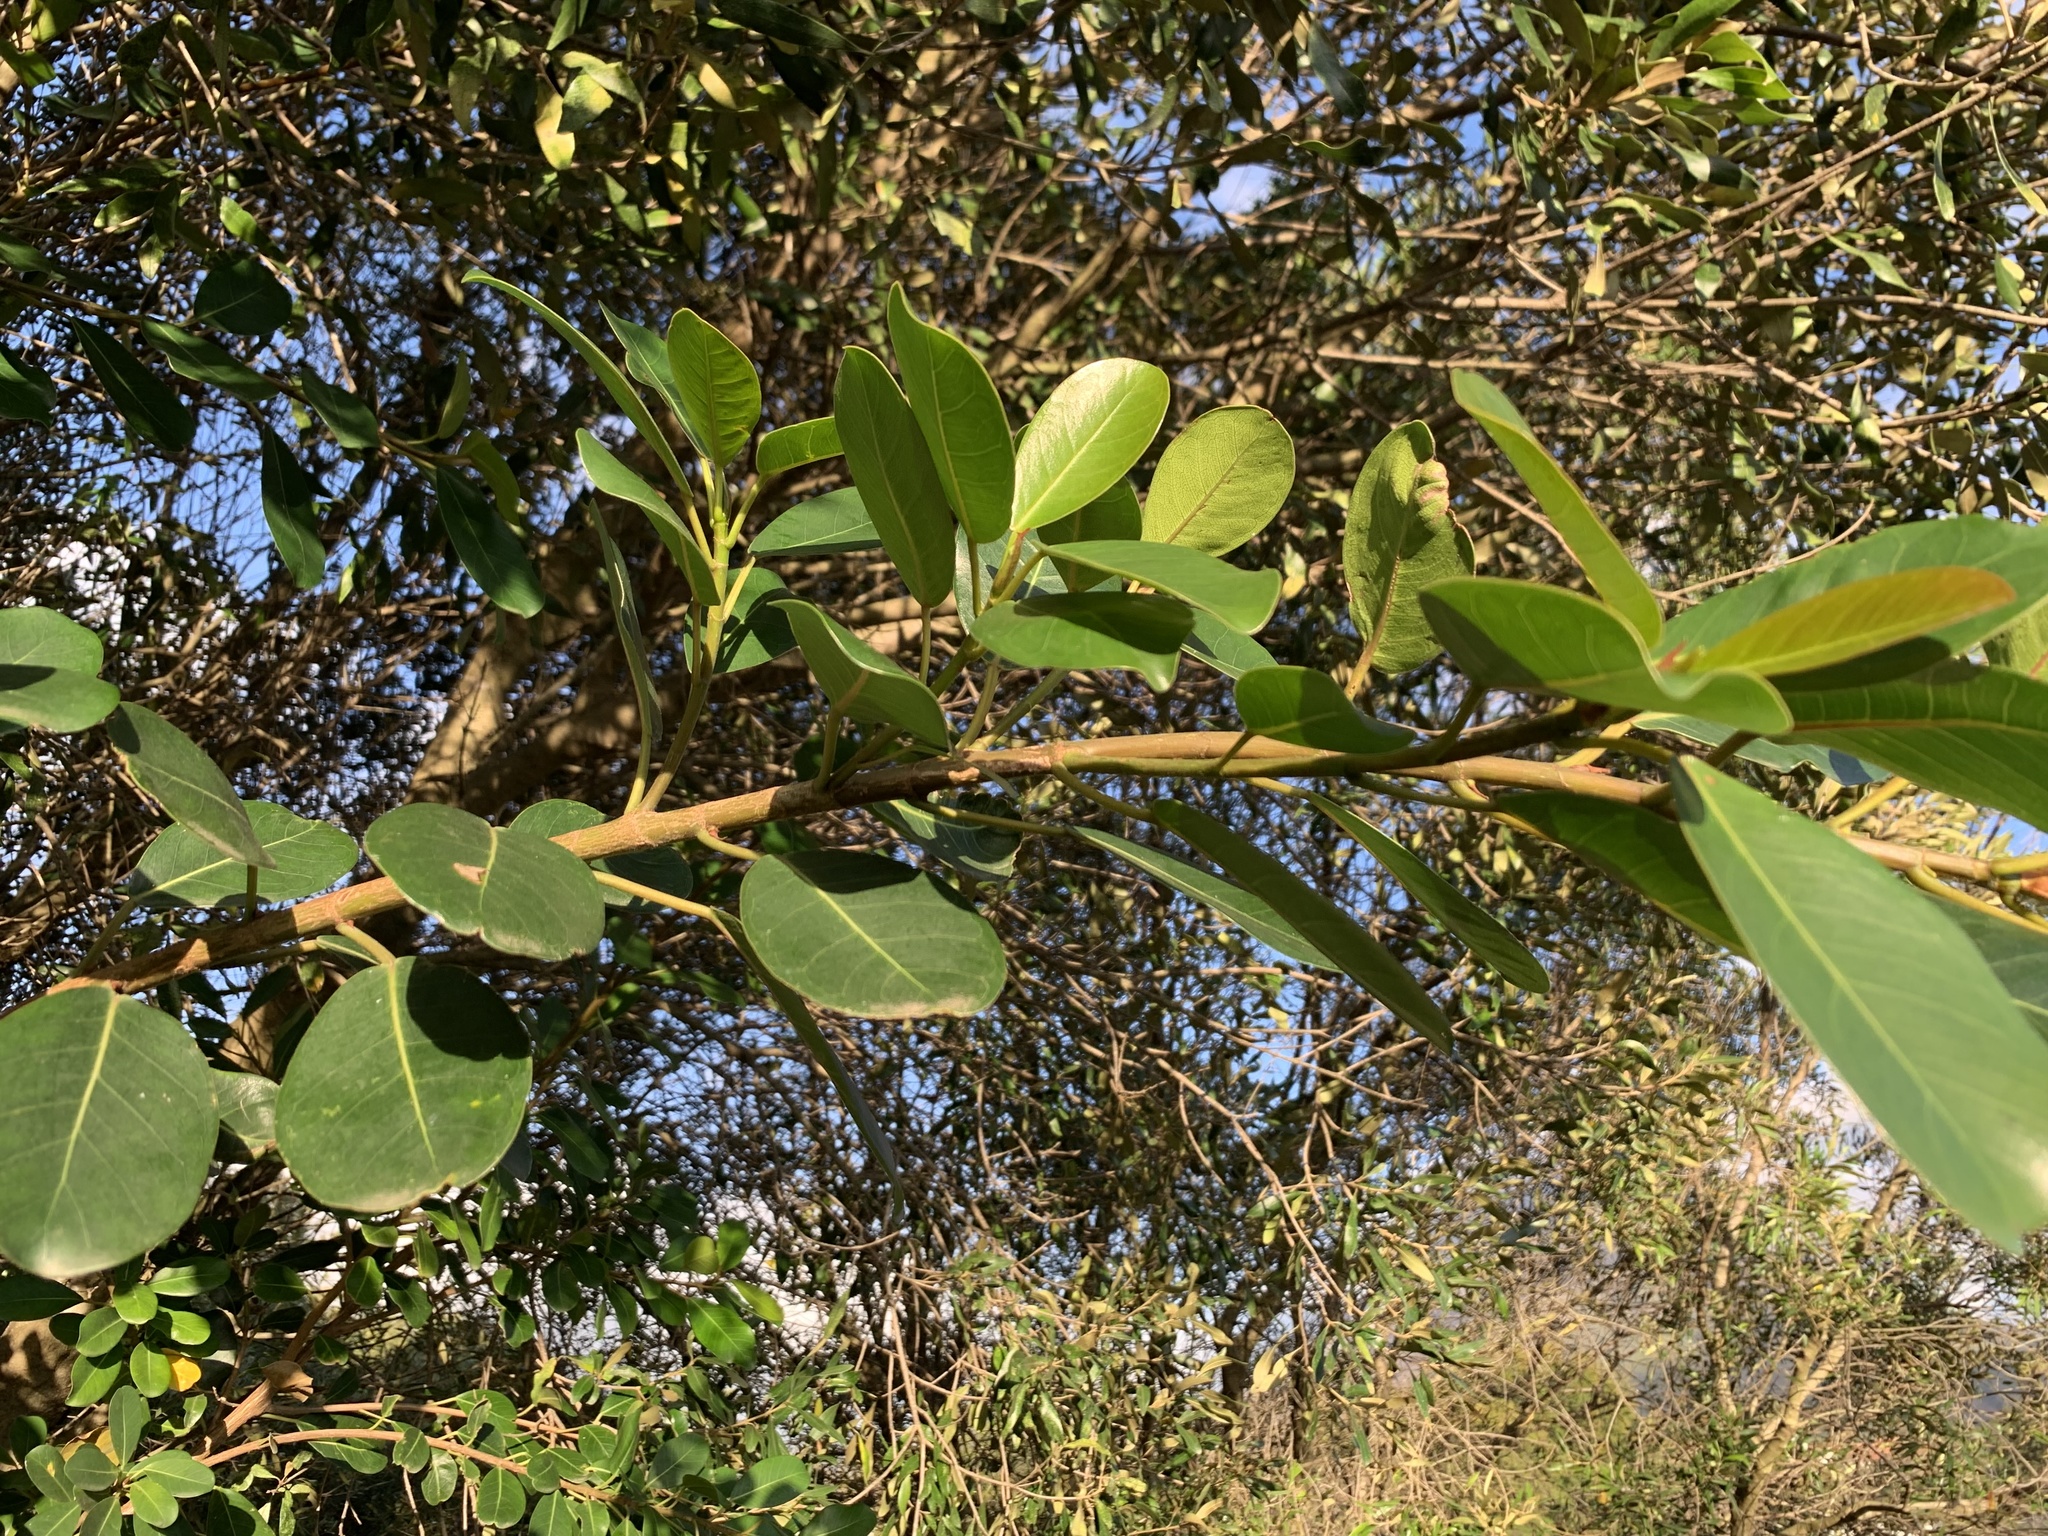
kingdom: Plantae
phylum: Tracheophyta
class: Magnoliopsida
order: Rosales
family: Moraceae
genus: Ficus
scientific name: Ficus thonningii
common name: Fig
